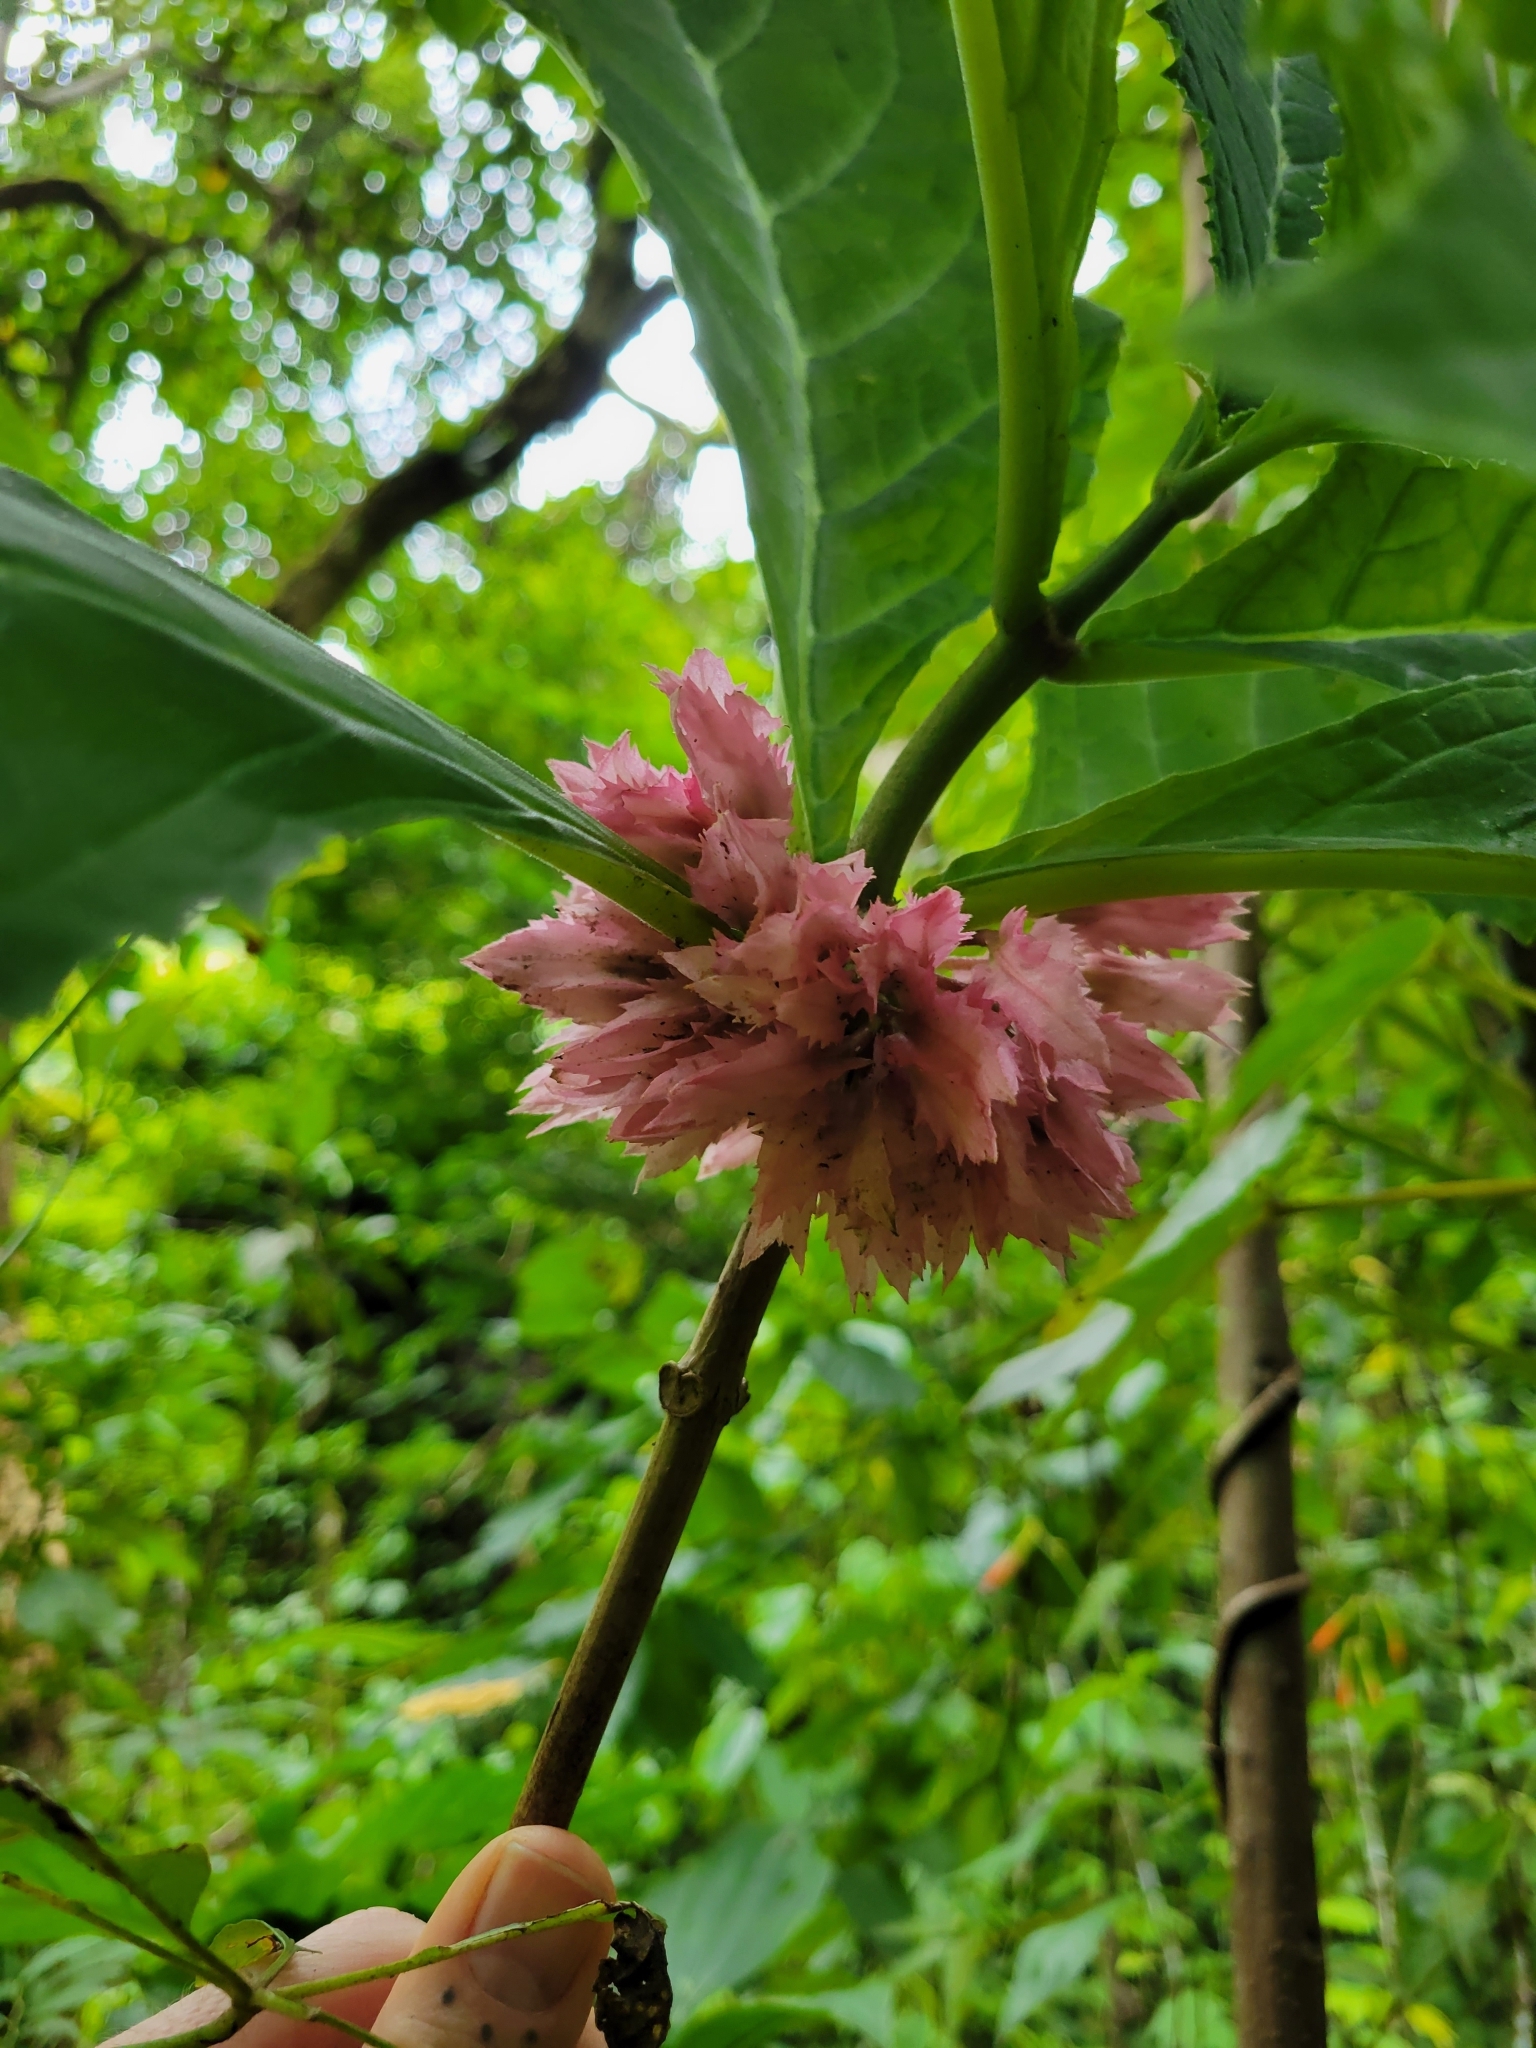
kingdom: Plantae
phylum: Tracheophyta
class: Magnoliopsida
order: Lamiales
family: Gesneriaceae
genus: Drymonia
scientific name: Drymonia parviflora
